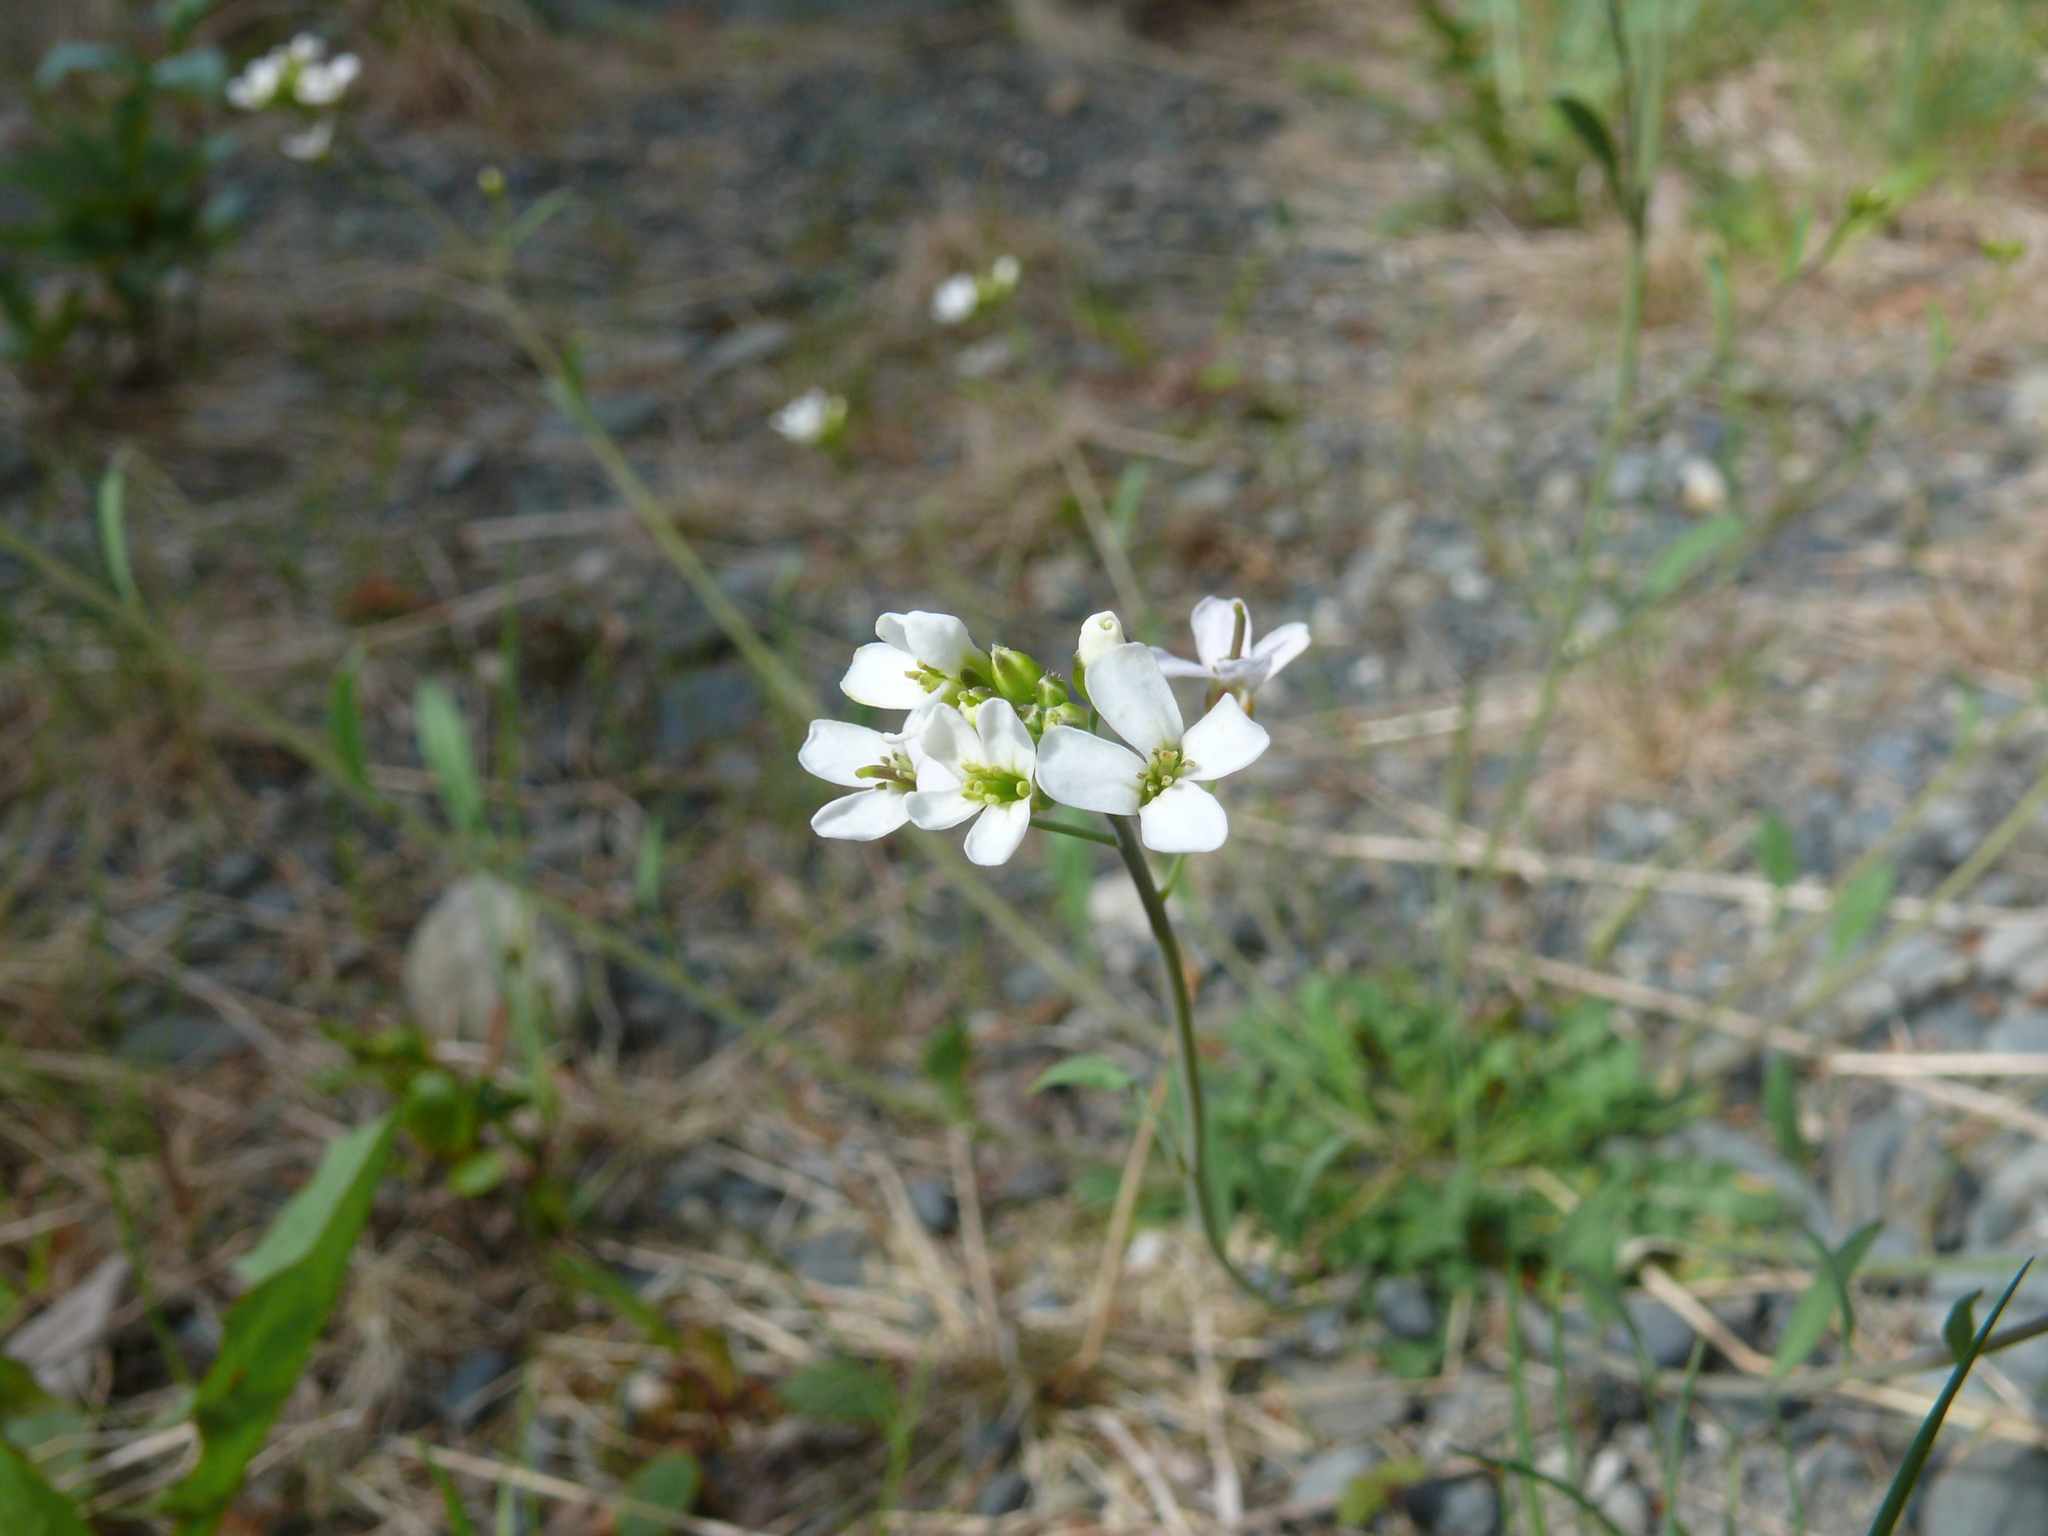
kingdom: Plantae
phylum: Tracheophyta
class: Magnoliopsida
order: Brassicales
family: Brassicaceae
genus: Arabidopsis
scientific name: Arabidopsis lyrata
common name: Lyrate rockcress
